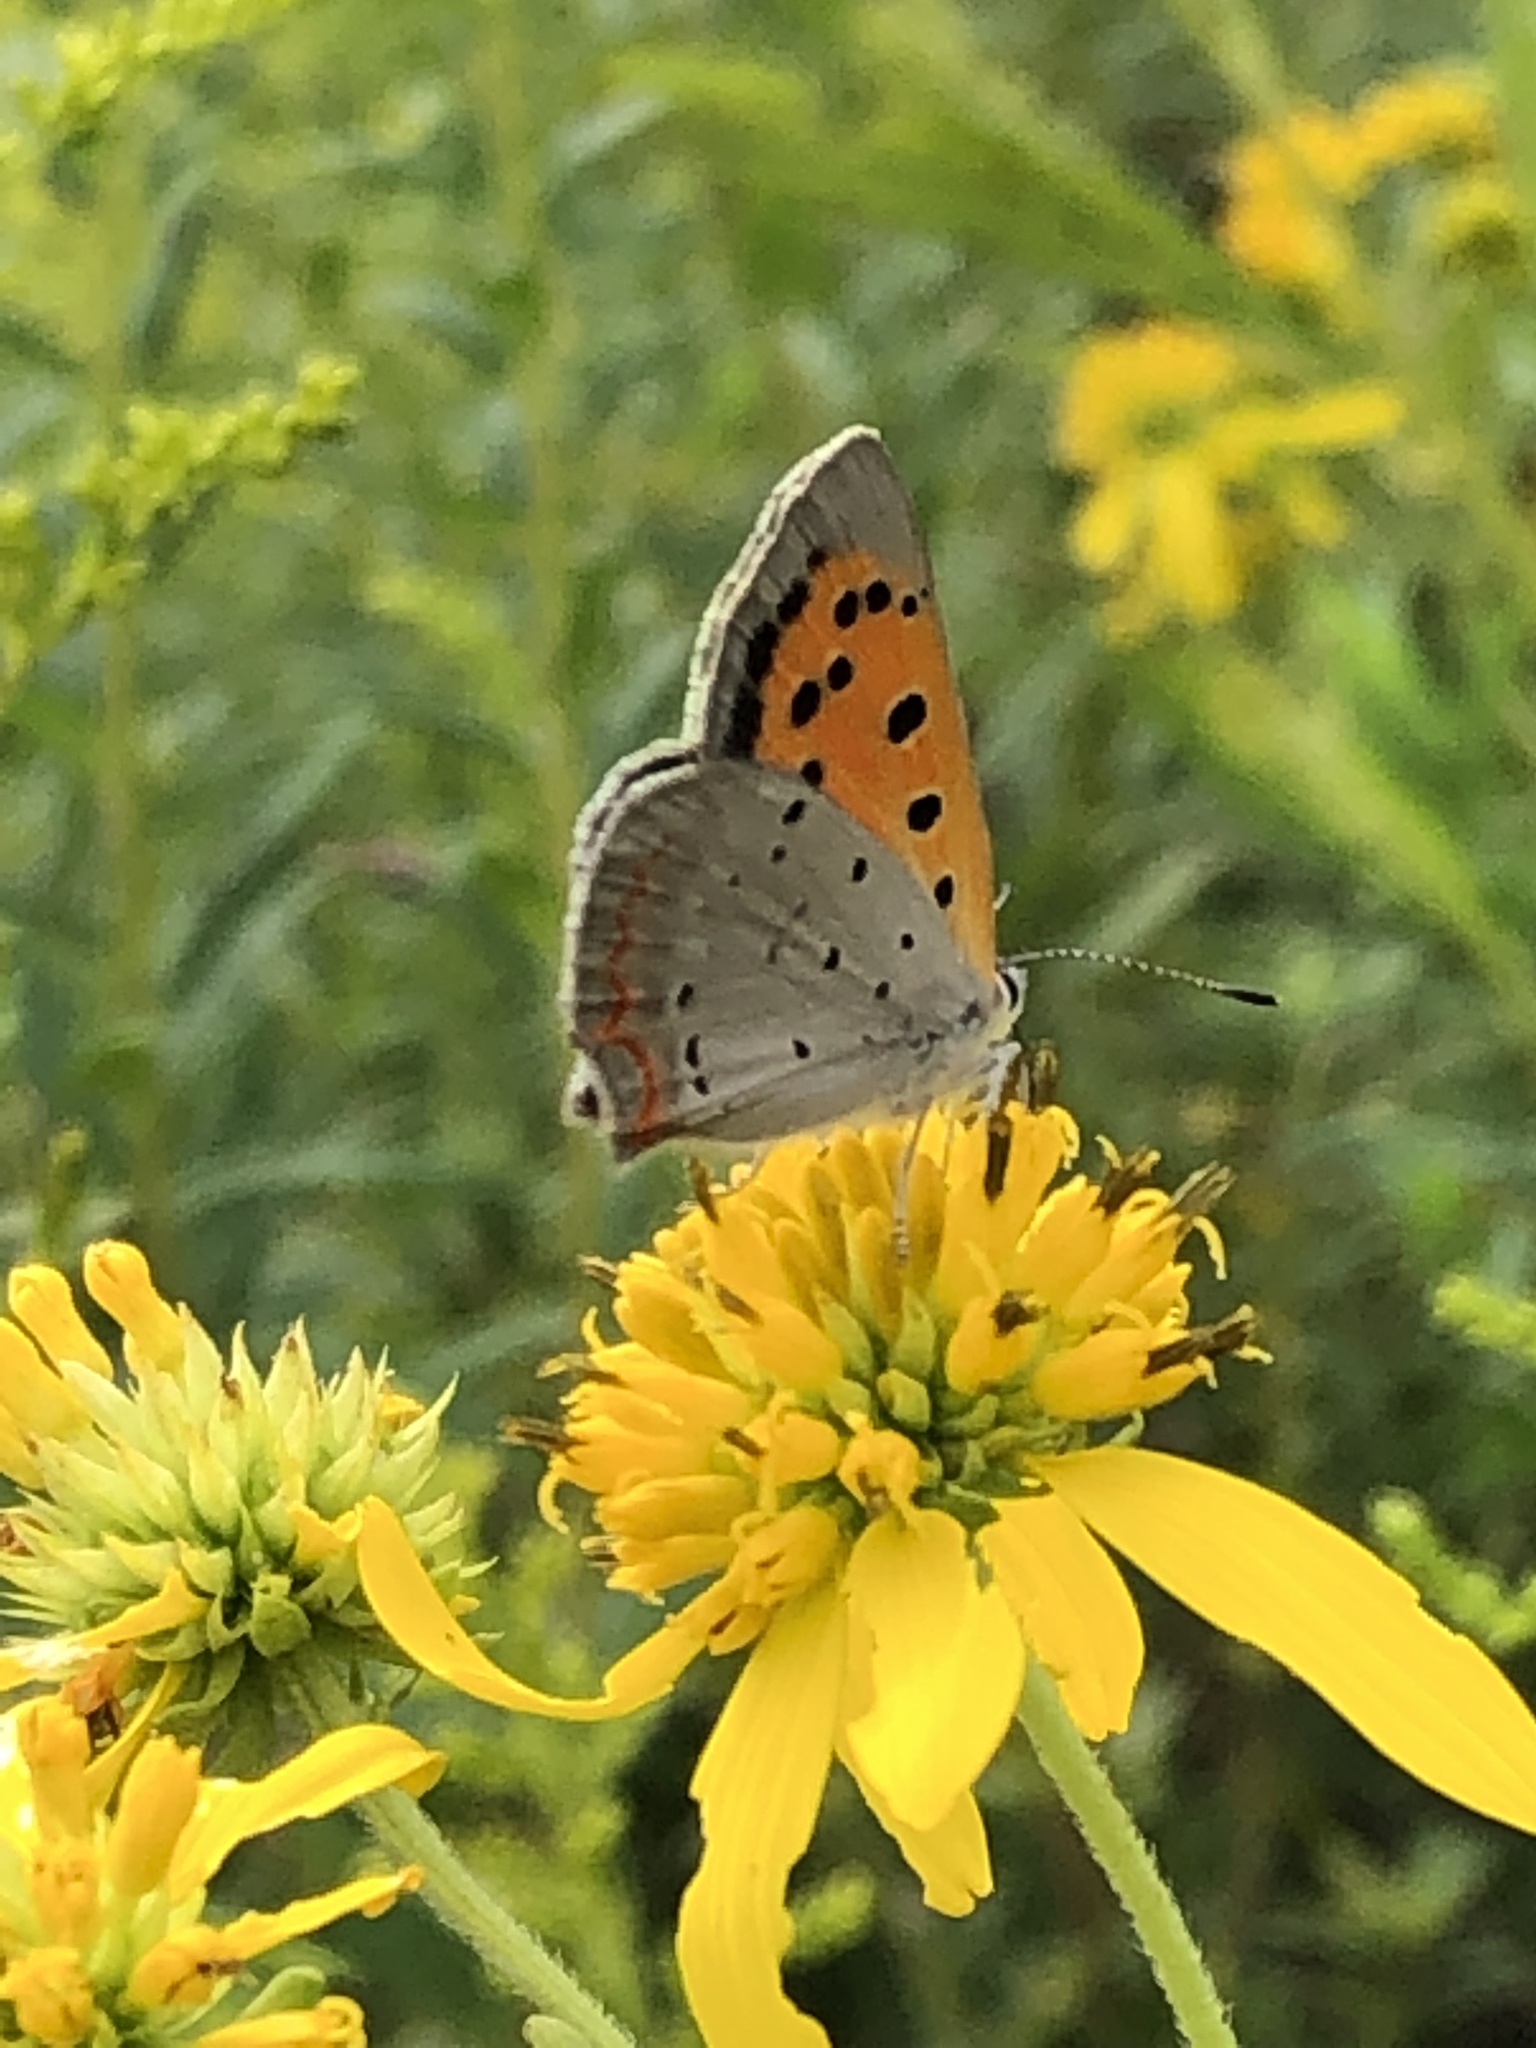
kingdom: Animalia
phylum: Arthropoda
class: Insecta
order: Lepidoptera
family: Lycaenidae
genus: Lycaena
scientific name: Lycaena hypophlaeas
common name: American copper
